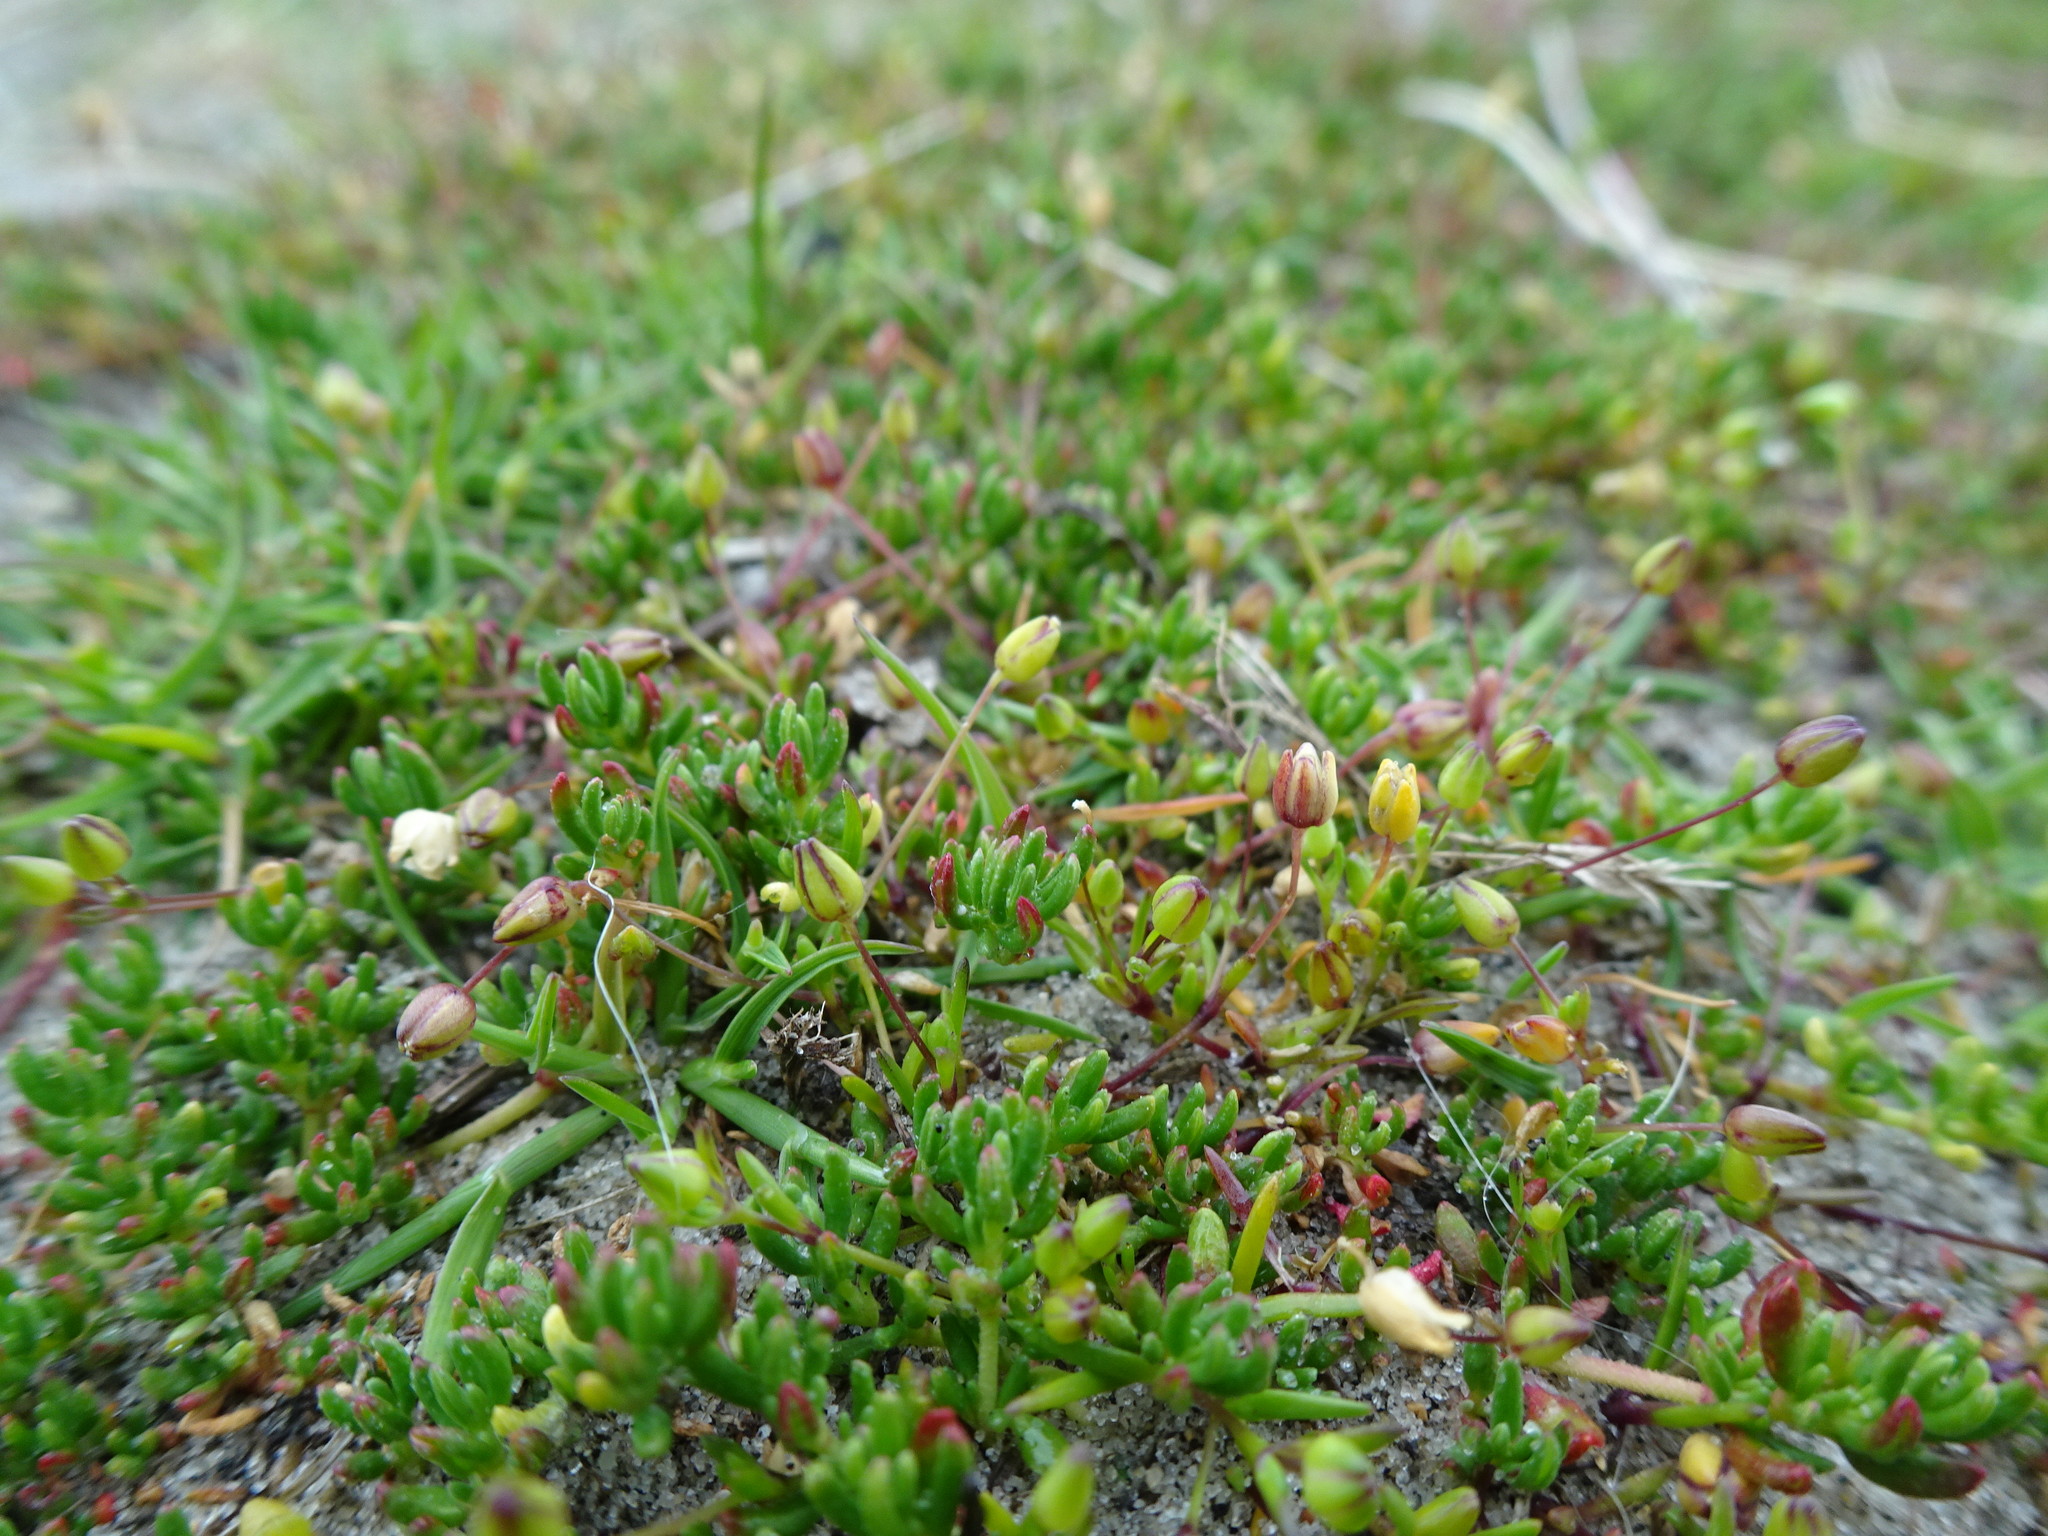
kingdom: Plantae
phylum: Tracheophyta
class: Magnoliopsida
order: Caryophyllales
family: Frankeniaceae
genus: Frankenia
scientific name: Frankenia laevis
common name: Sea-heath
